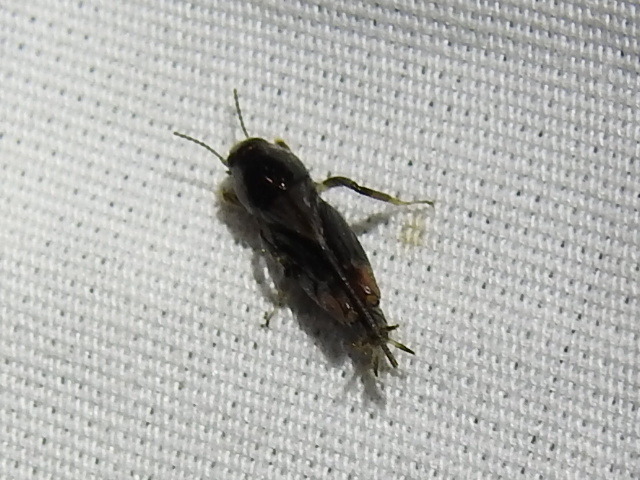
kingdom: Animalia
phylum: Arthropoda
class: Insecta
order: Orthoptera
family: Tridactylidae
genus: Neotridactylus
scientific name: Neotridactylus apicialis
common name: Larger pygmy locust
